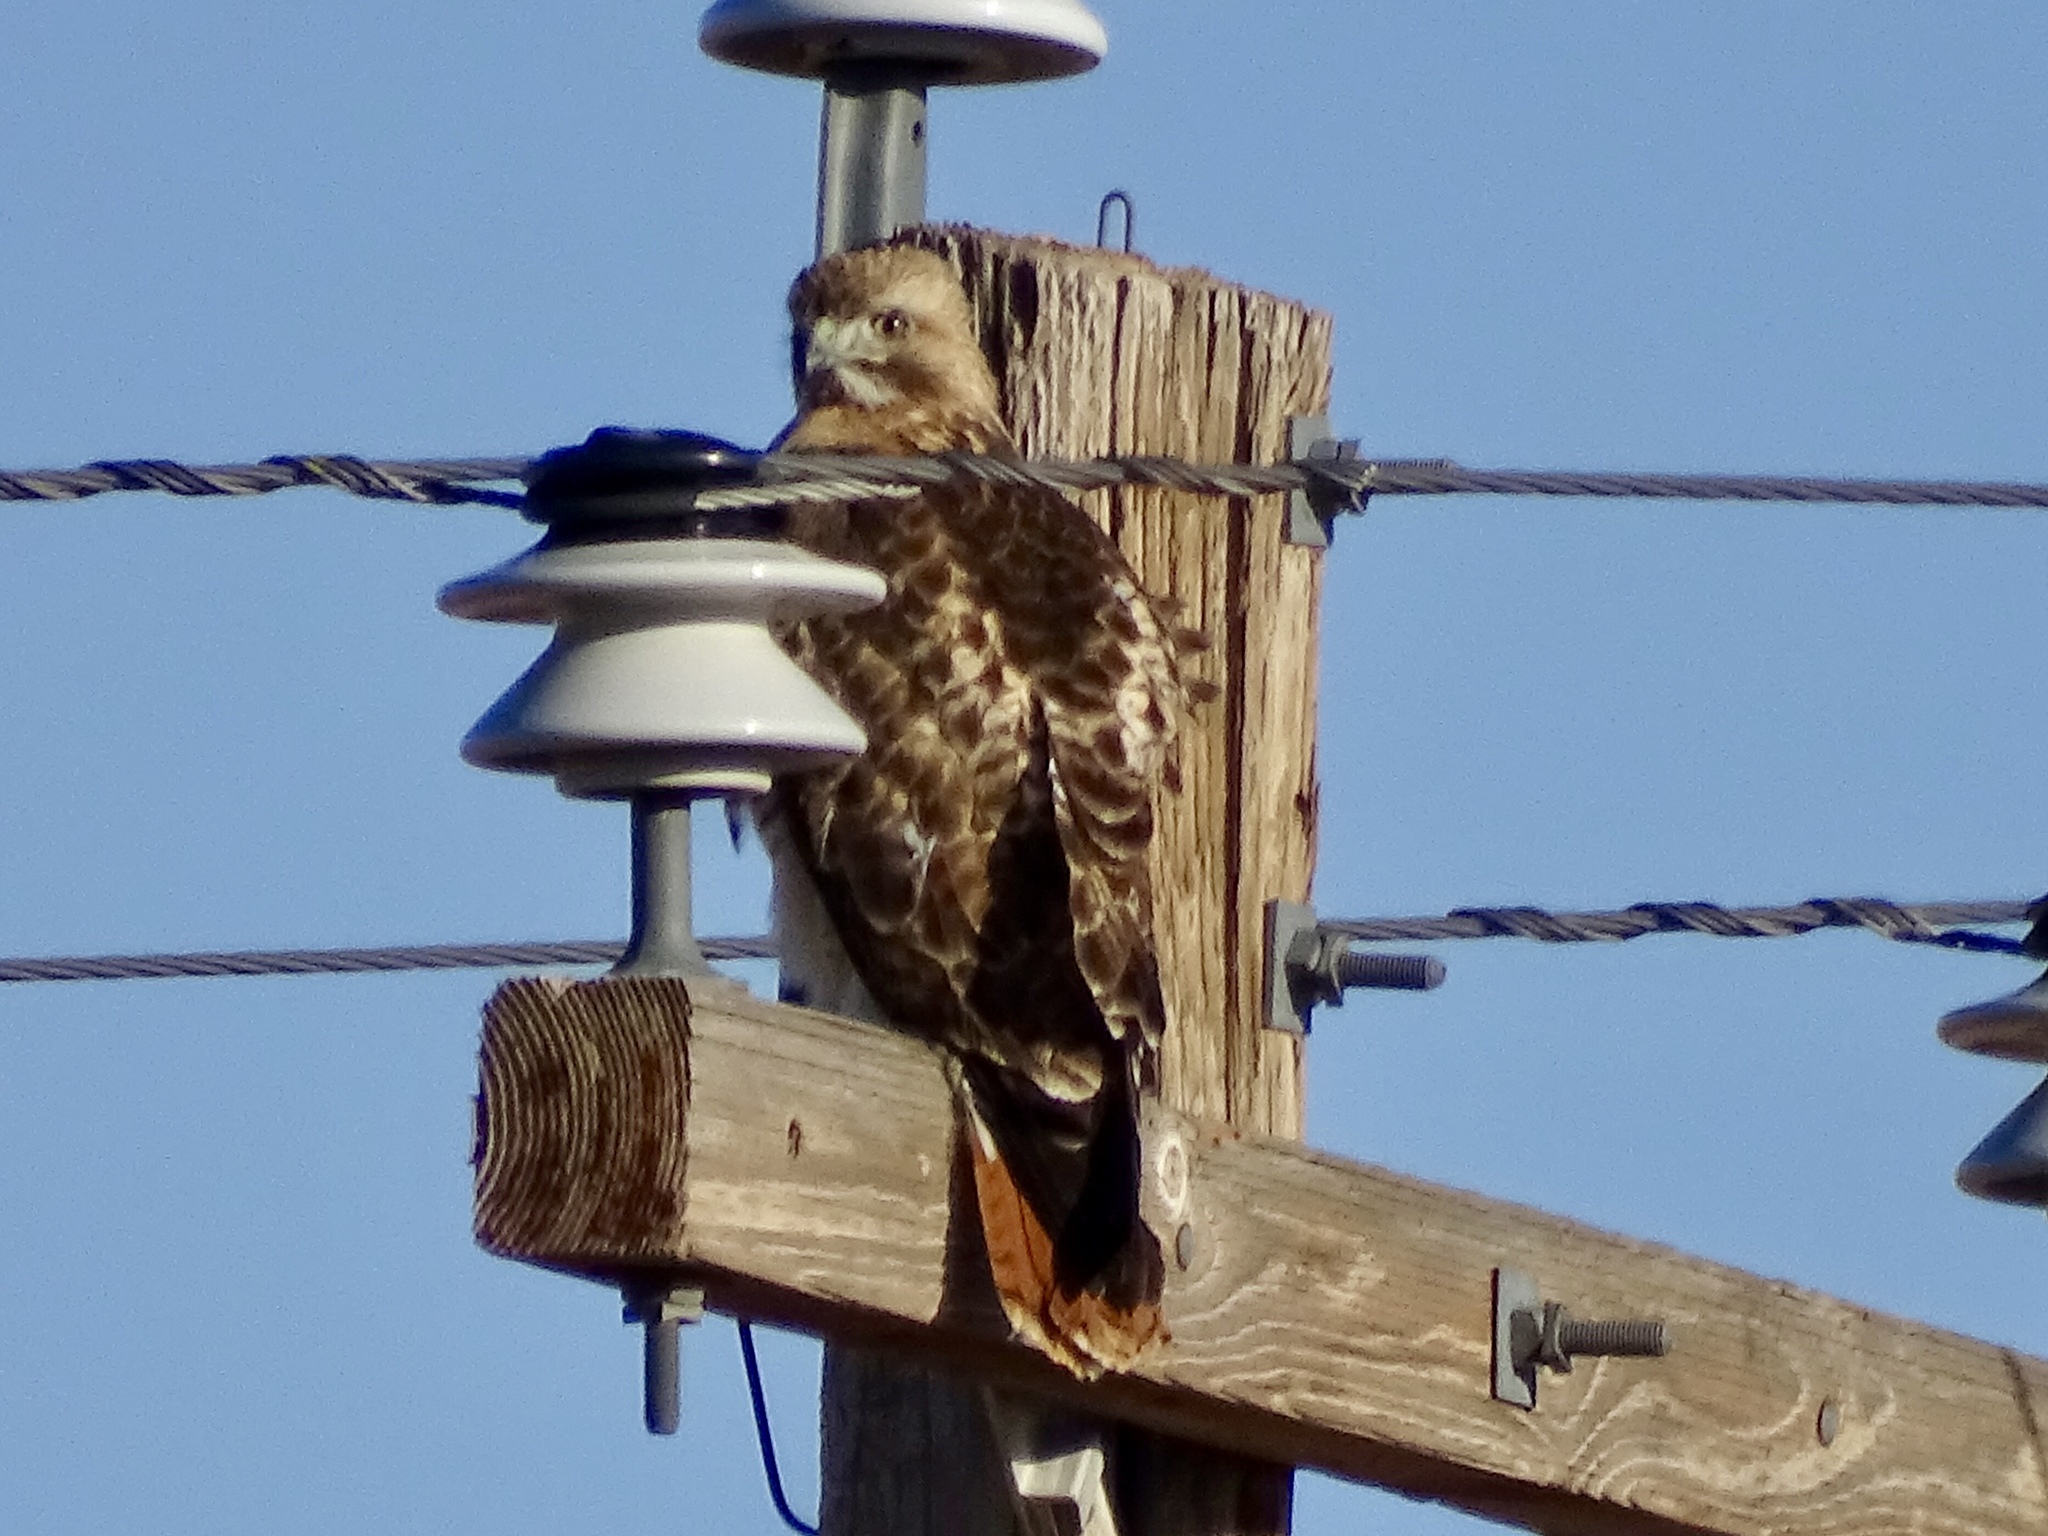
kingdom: Animalia
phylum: Chordata
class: Aves
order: Accipitriformes
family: Accipitridae
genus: Buteo
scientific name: Buteo jamaicensis
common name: Red-tailed hawk
